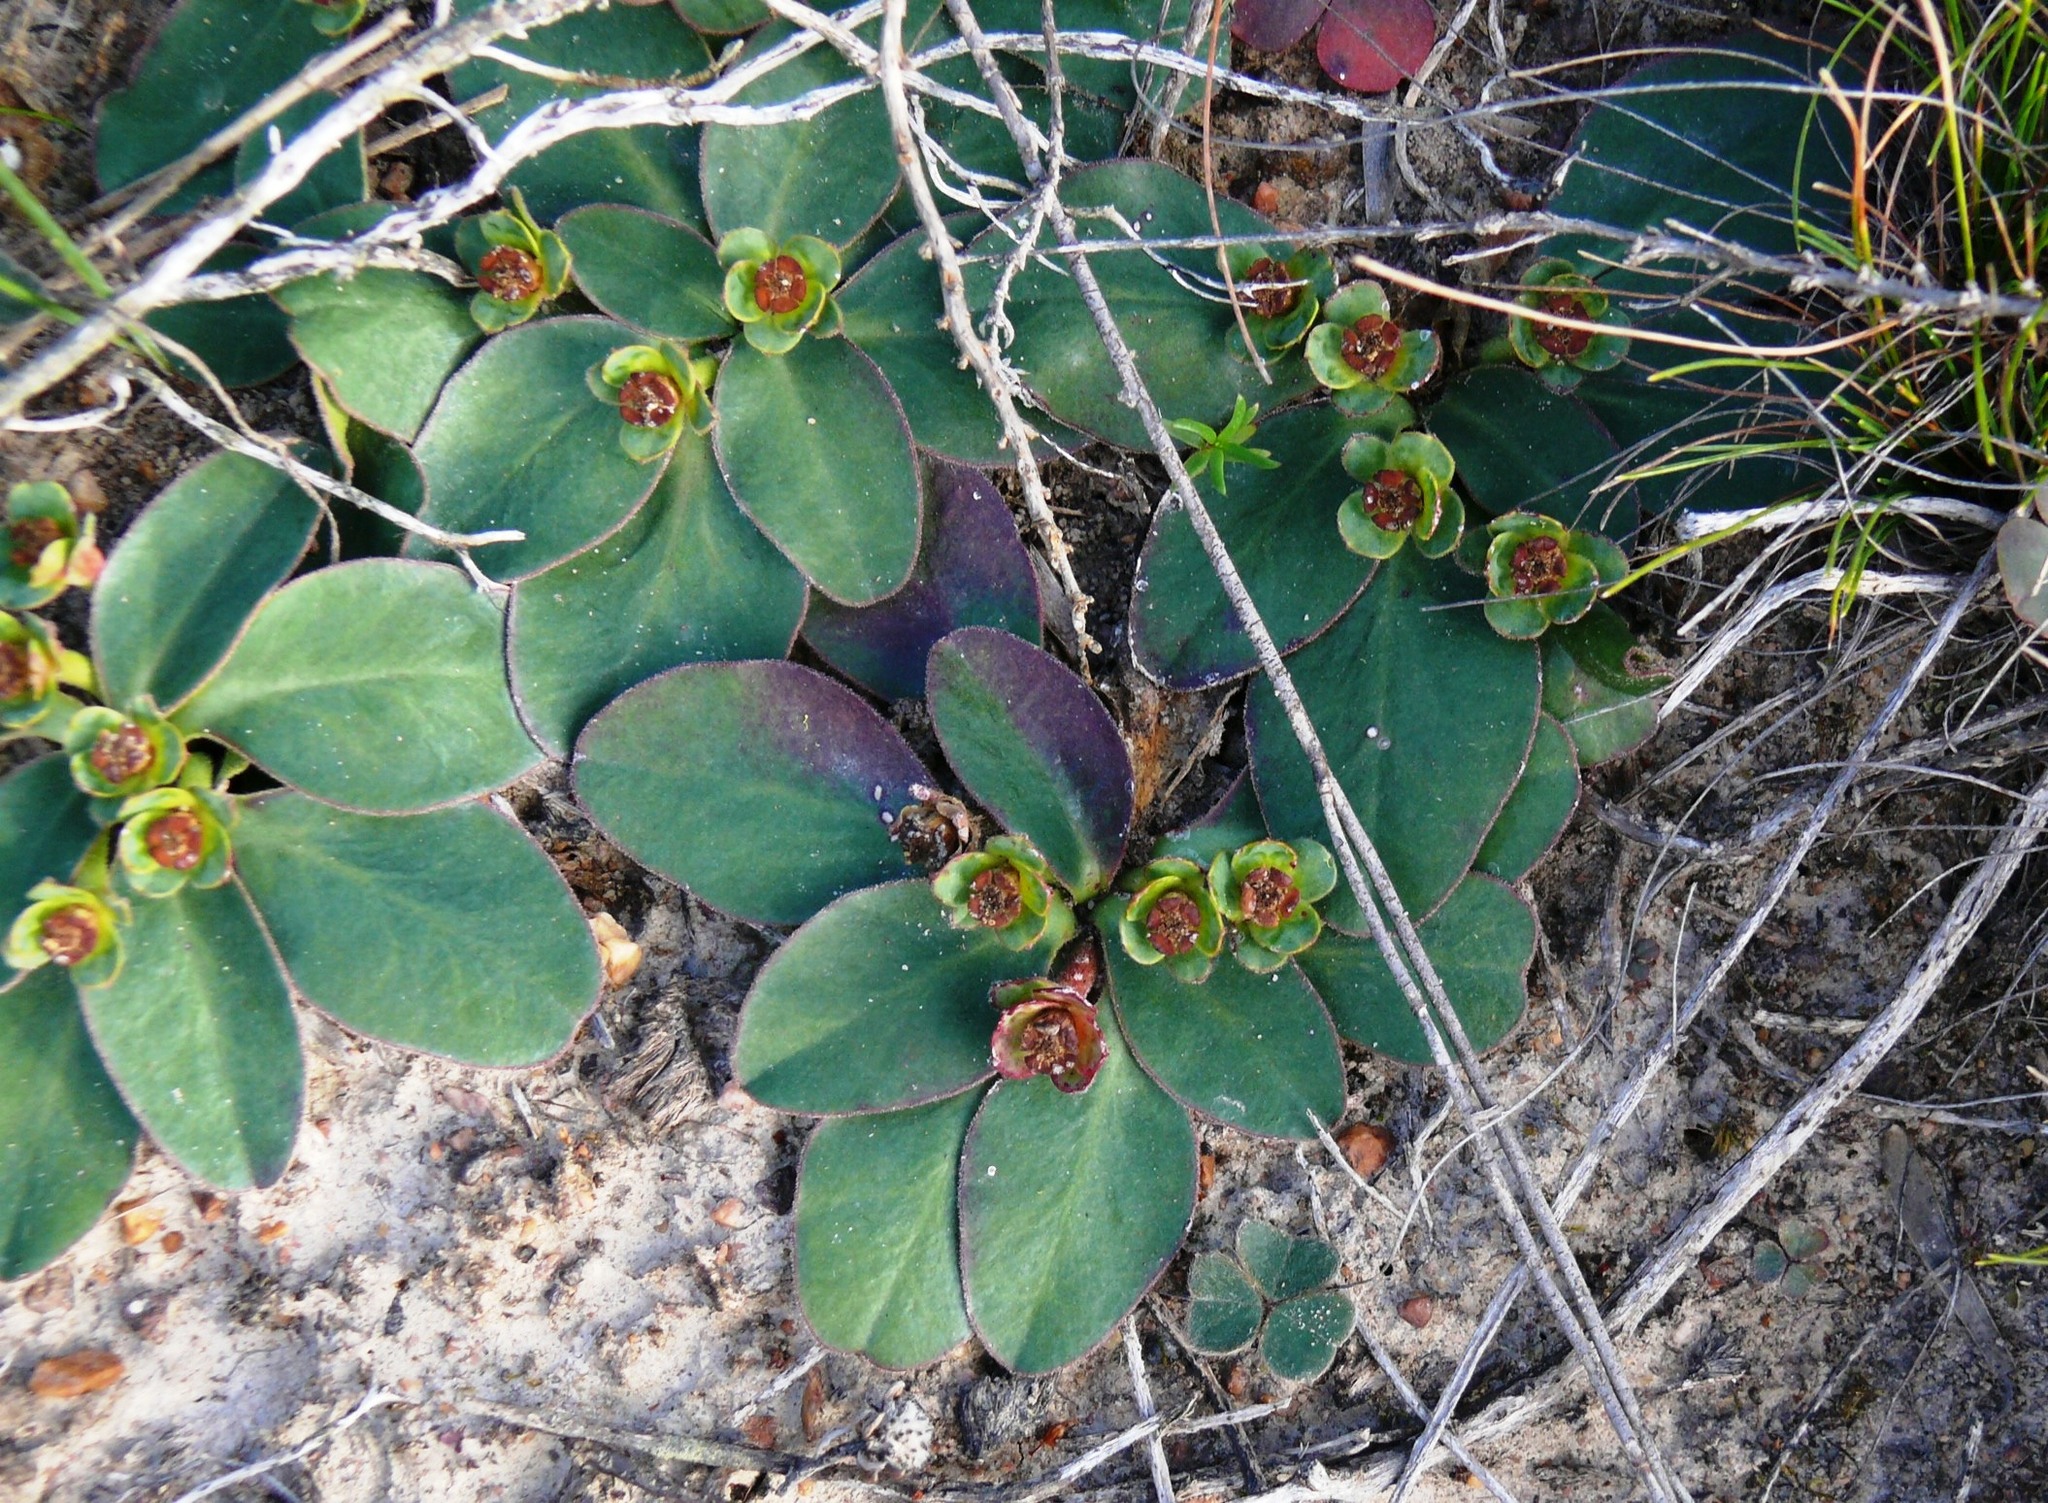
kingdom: Plantae
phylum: Tracheophyta
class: Magnoliopsida
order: Malpighiales
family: Euphorbiaceae
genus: Euphorbia
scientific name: Euphorbia ecklonii
